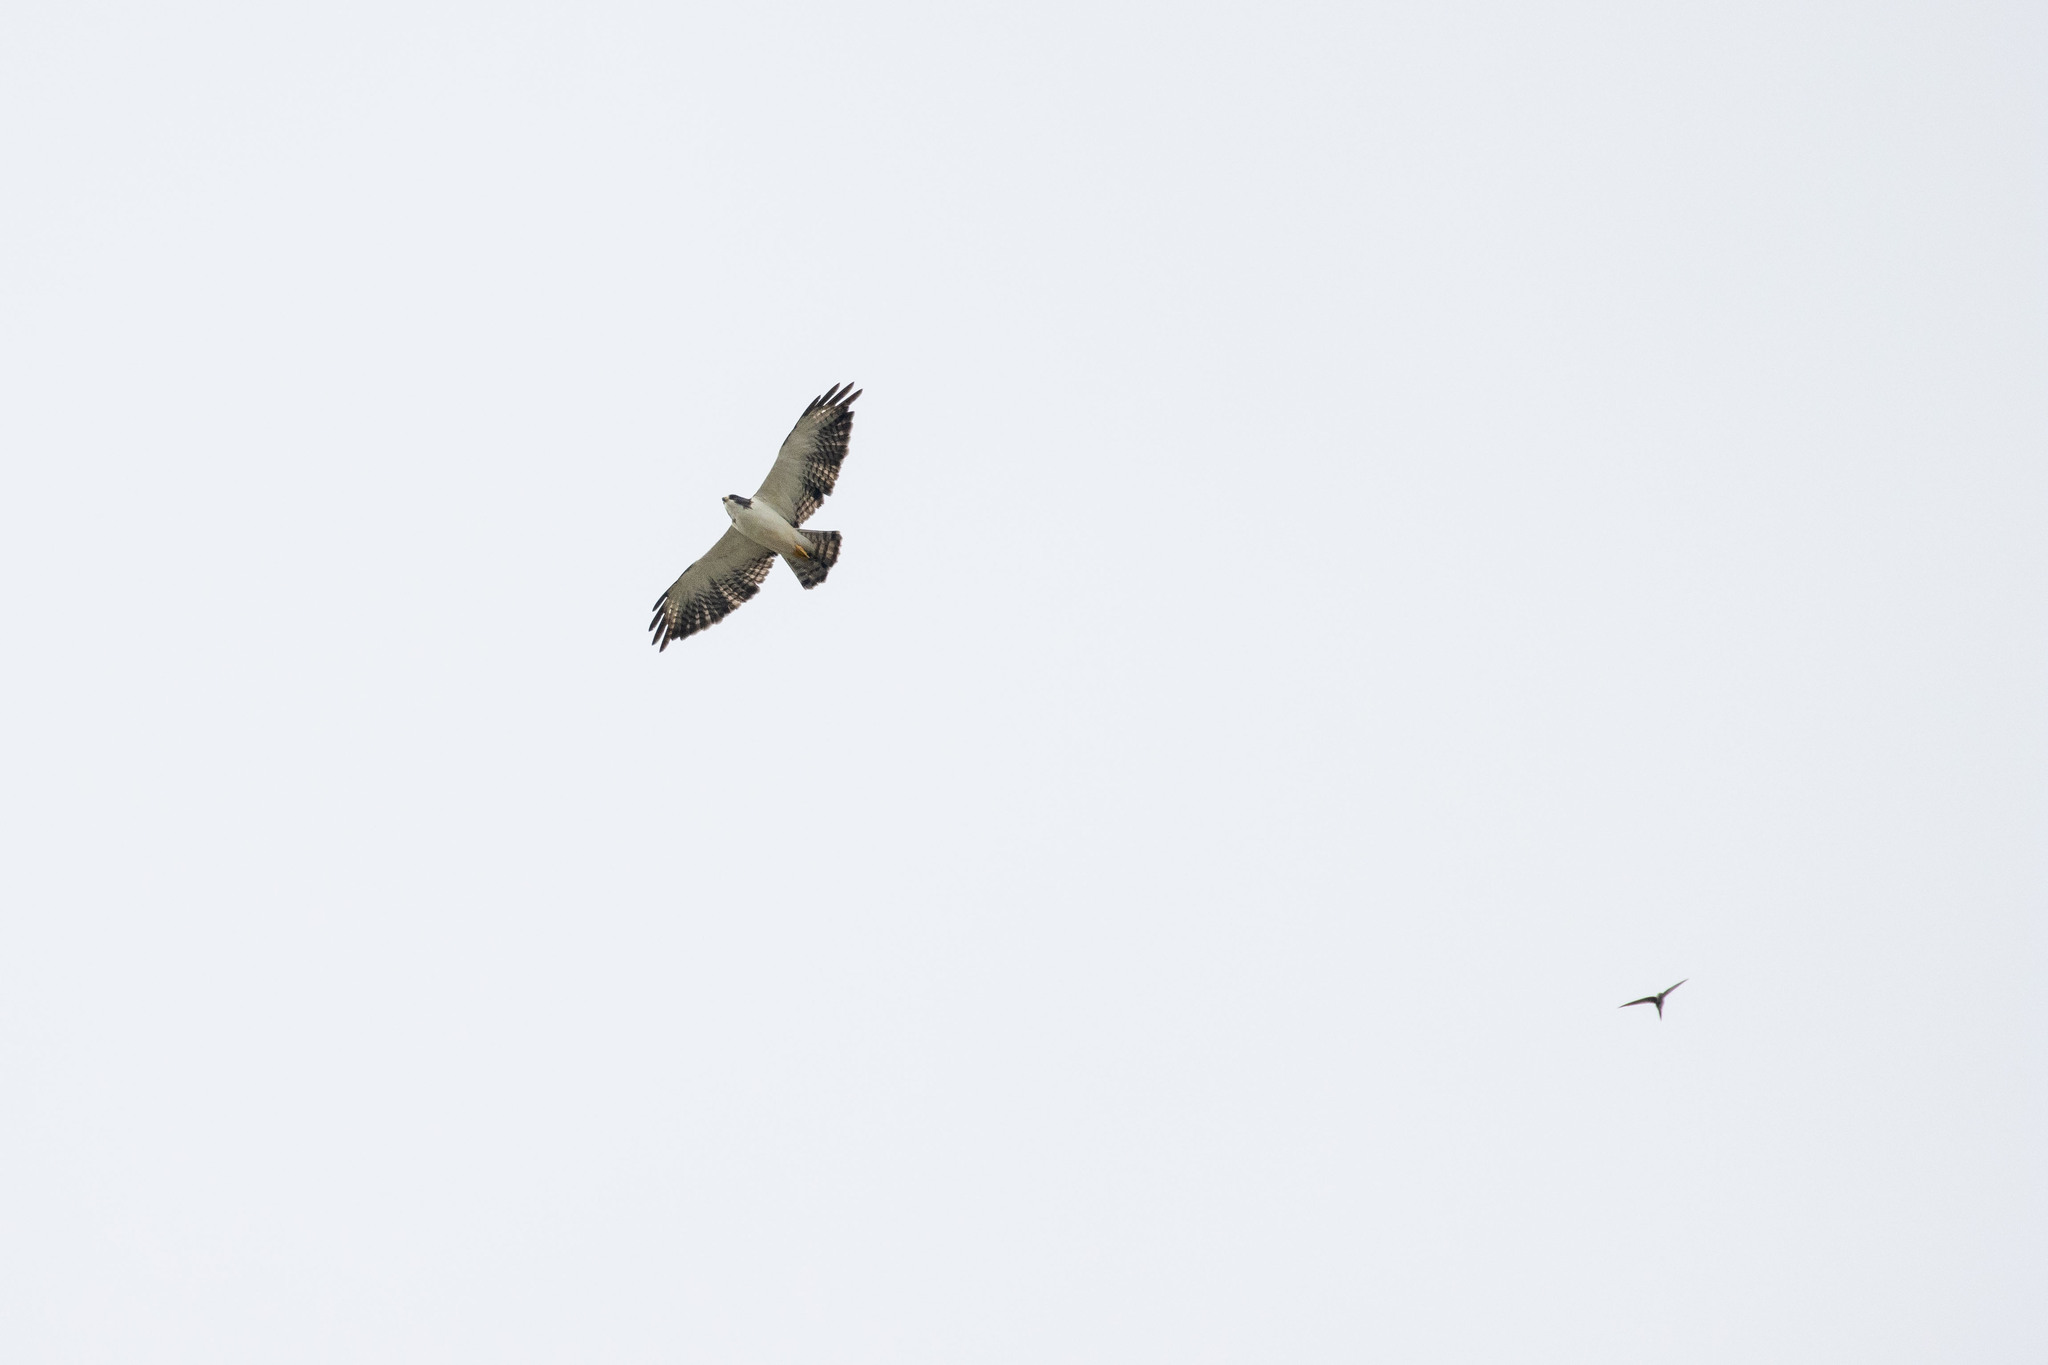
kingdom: Animalia
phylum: Chordata
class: Aves
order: Accipitriformes
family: Accipitridae
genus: Buteo
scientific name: Buteo brachyurus
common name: Short-tailed hawk
